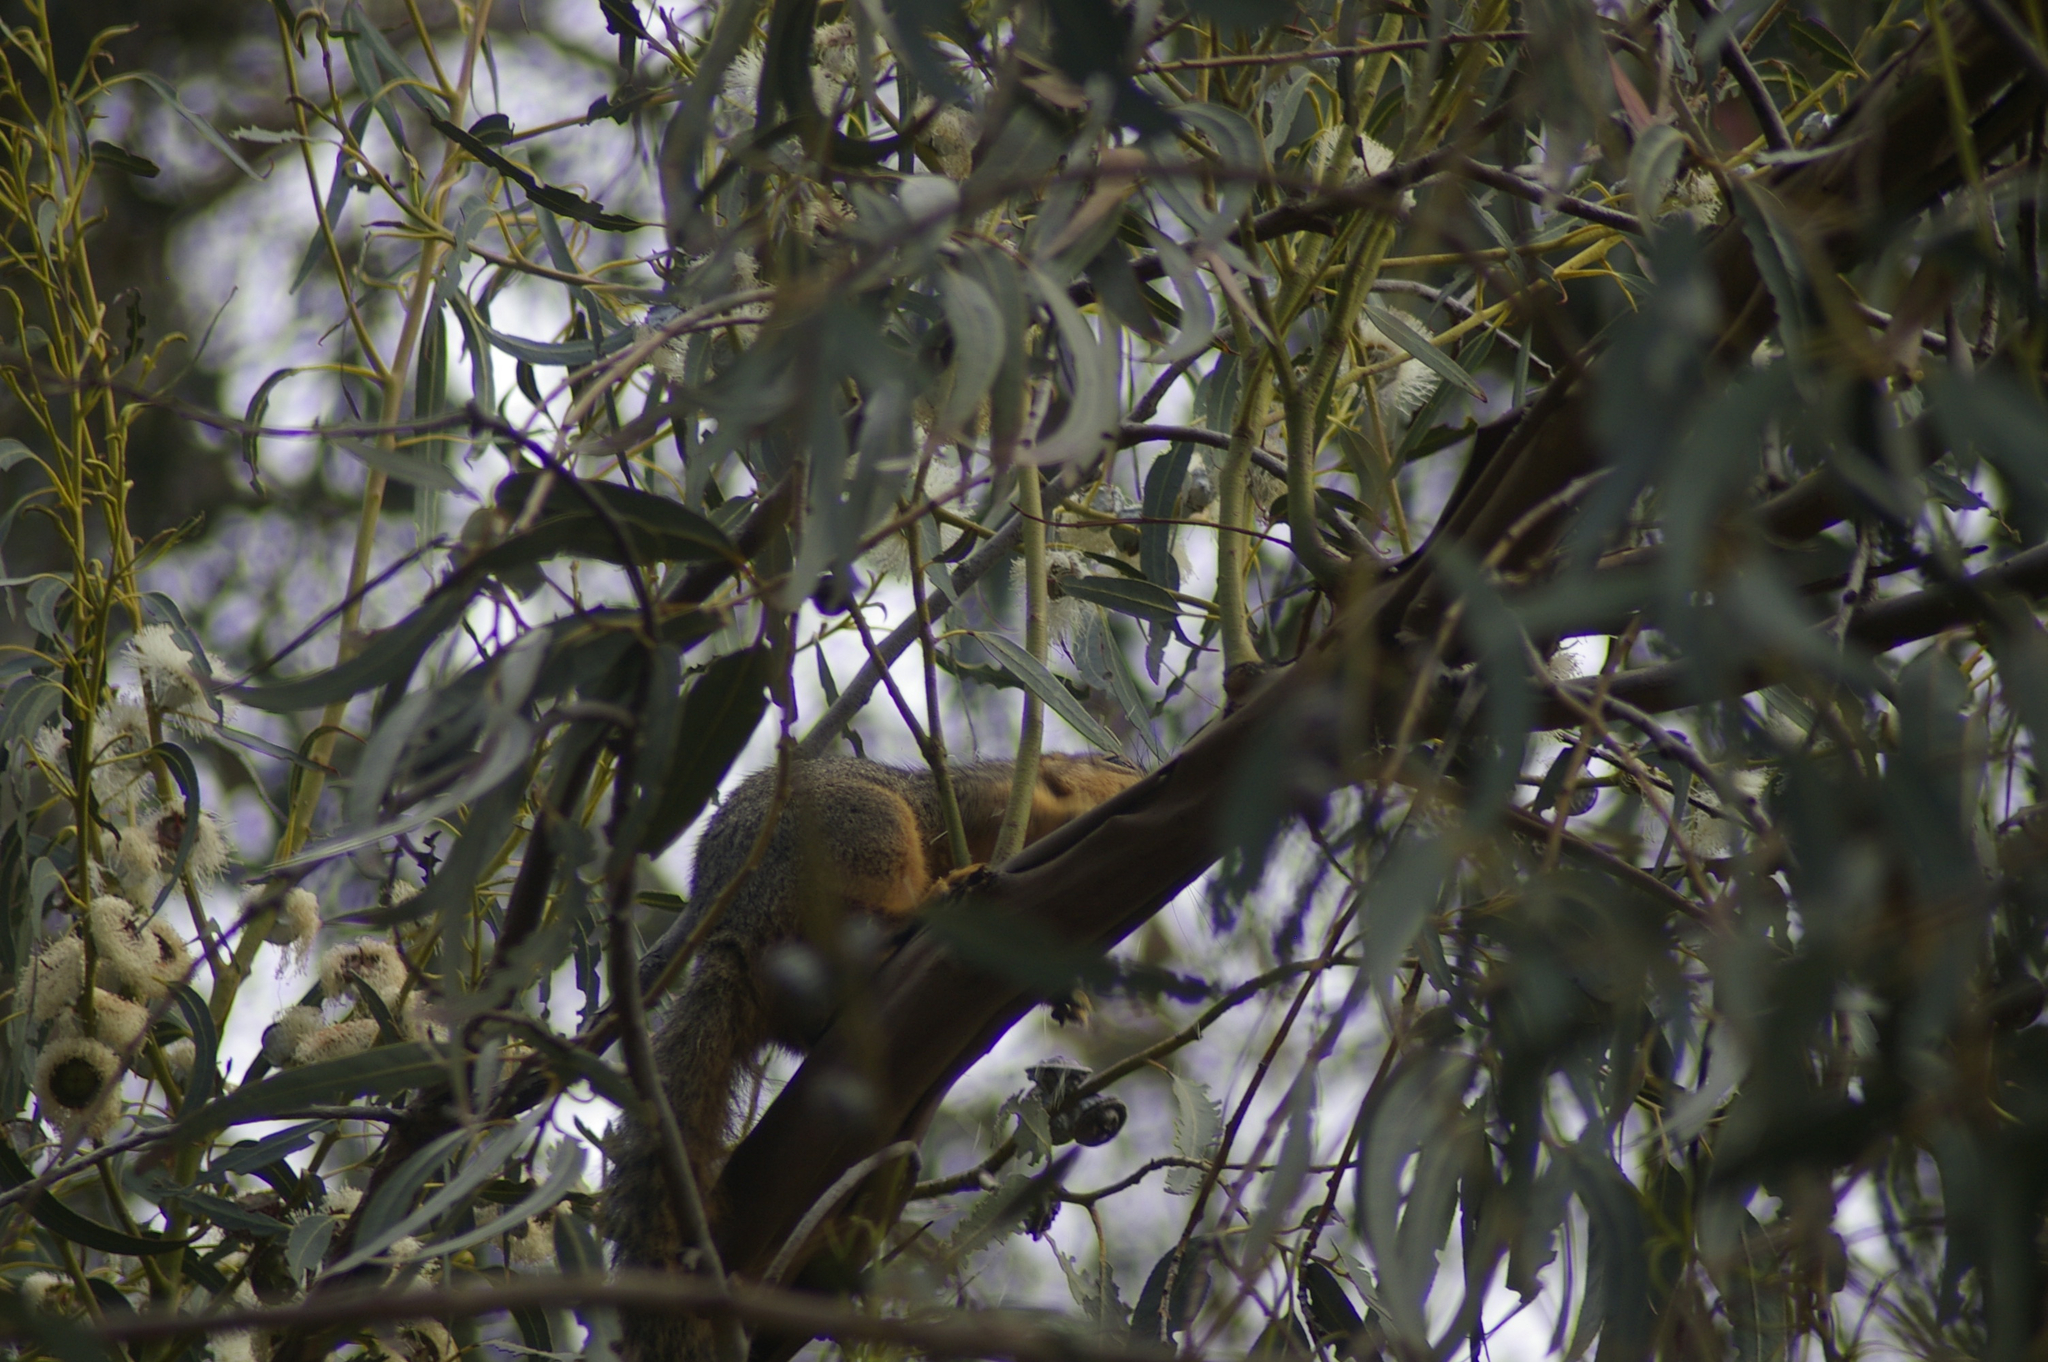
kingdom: Animalia
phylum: Chordata
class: Mammalia
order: Rodentia
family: Sciuridae
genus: Sciurus
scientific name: Sciurus niger
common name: Fox squirrel
